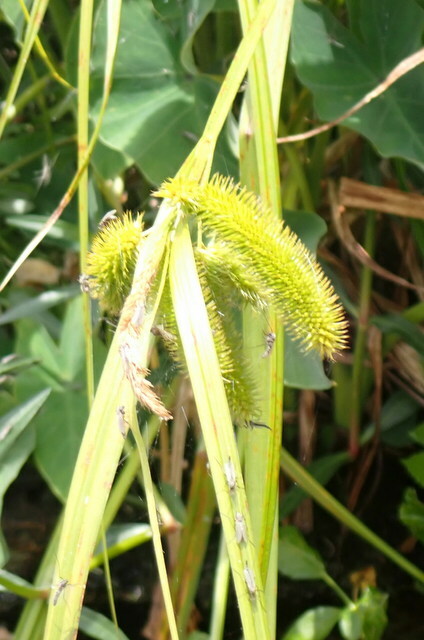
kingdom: Plantae
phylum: Tracheophyta
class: Liliopsida
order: Poales
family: Cyperaceae
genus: Carex
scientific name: Carex comosa
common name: Bristly sedge
